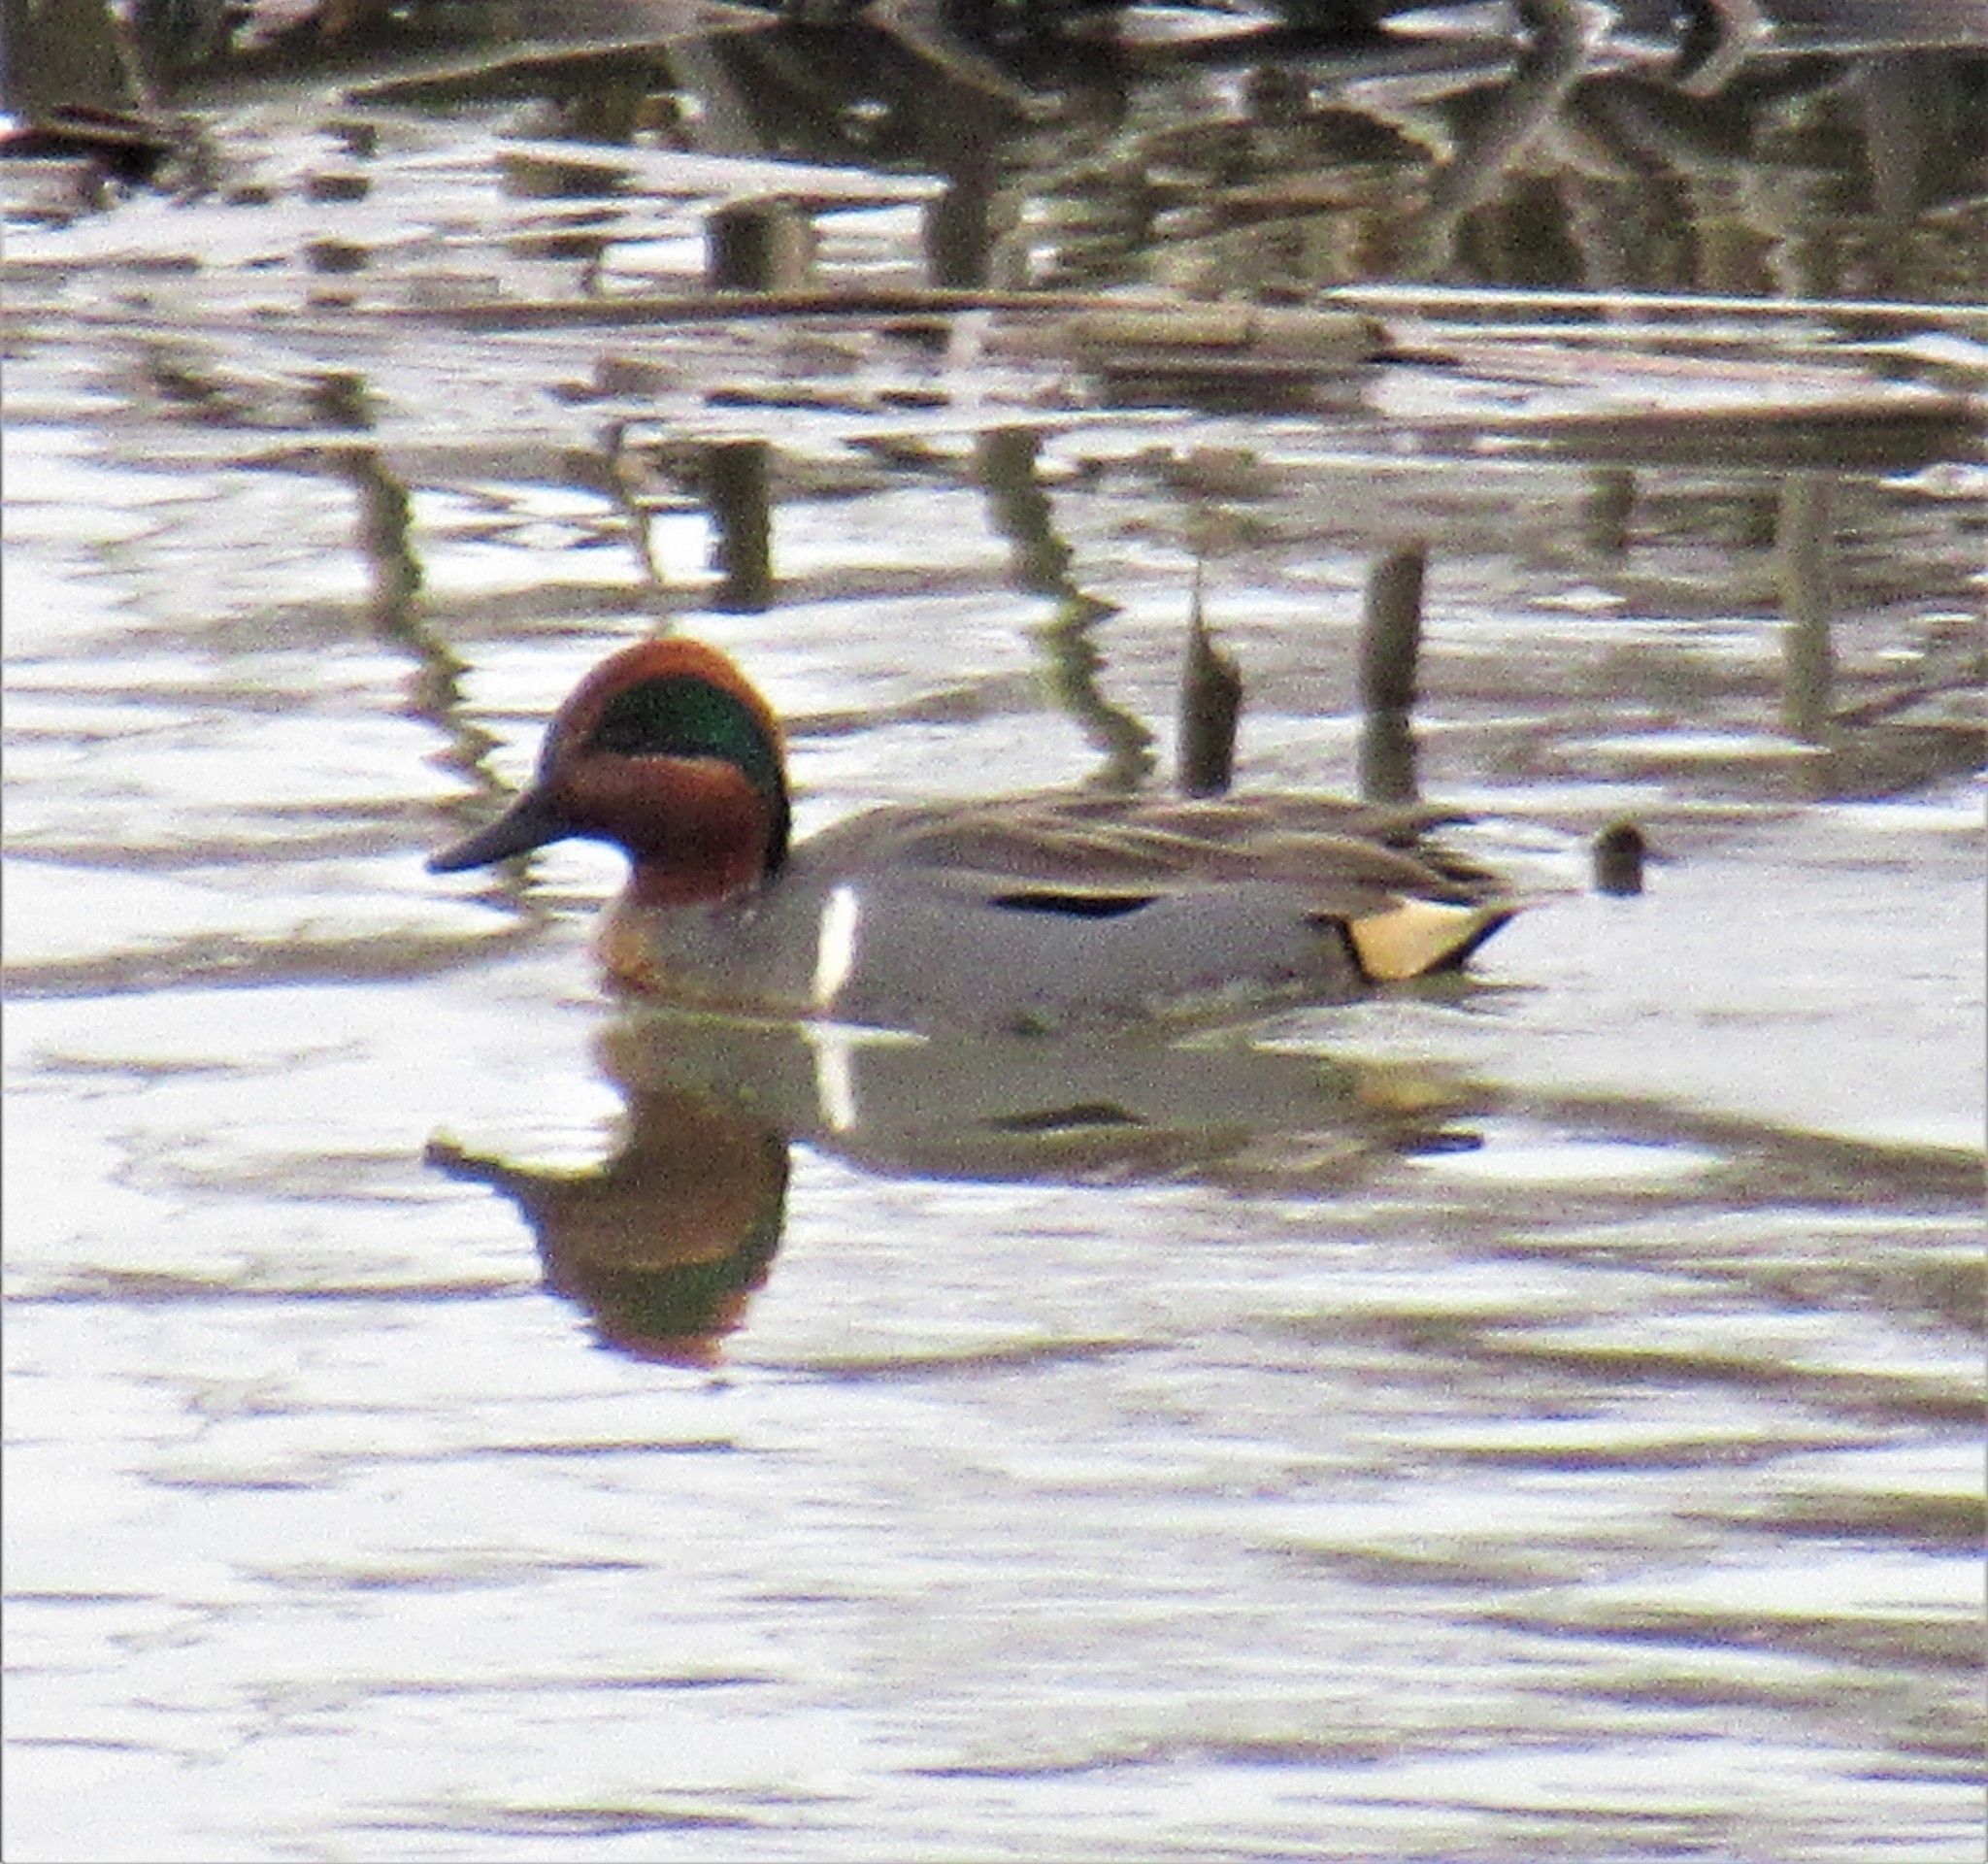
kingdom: Animalia
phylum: Chordata
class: Aves
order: Anseriformes
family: Anatidae
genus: Anas
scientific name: Anas crecca
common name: Eurasian teal
